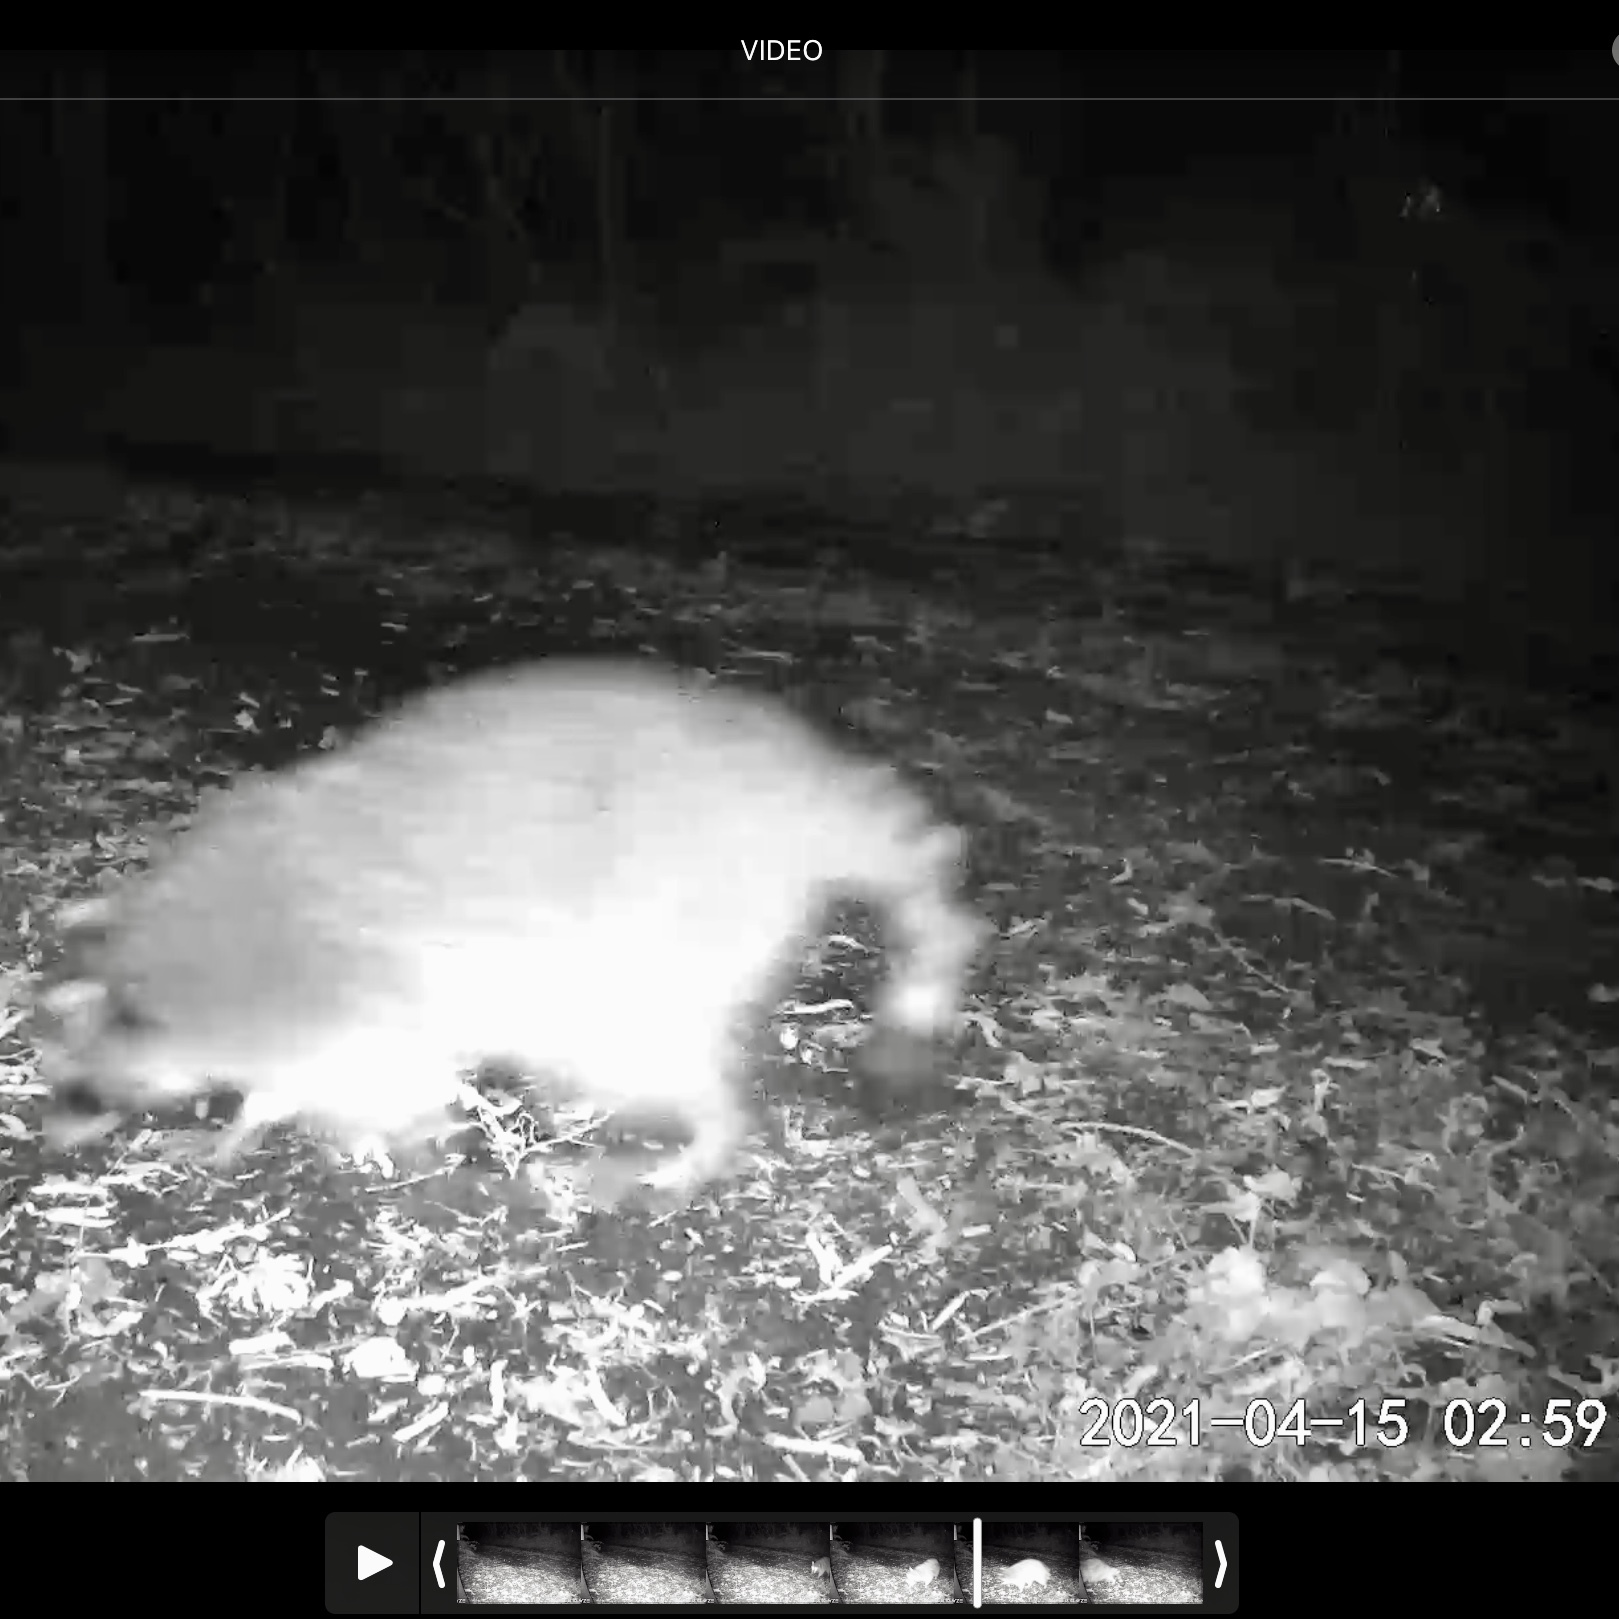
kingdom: Animalia
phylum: Chordata
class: Mammalia
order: Carnivora
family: Procyonidae
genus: Procyon
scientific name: Procyon lotor
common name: Raccoon
